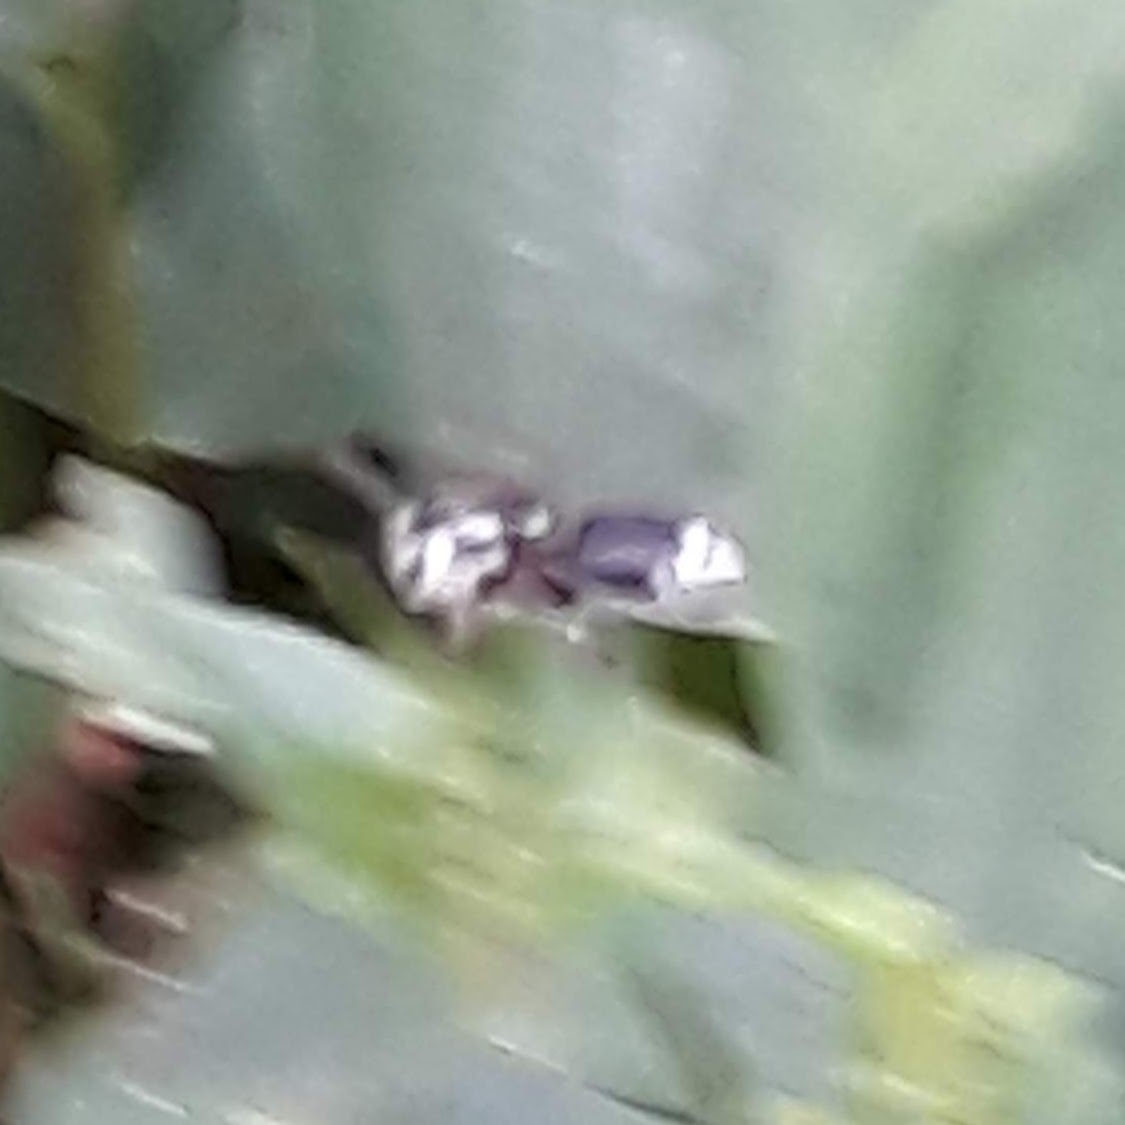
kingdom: Animalia
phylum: Arthropoda
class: Insecta
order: Hymenoptera
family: Vespidae
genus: Dolichovespula
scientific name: Dolichovespula maculata
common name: Bald-faced hornet
